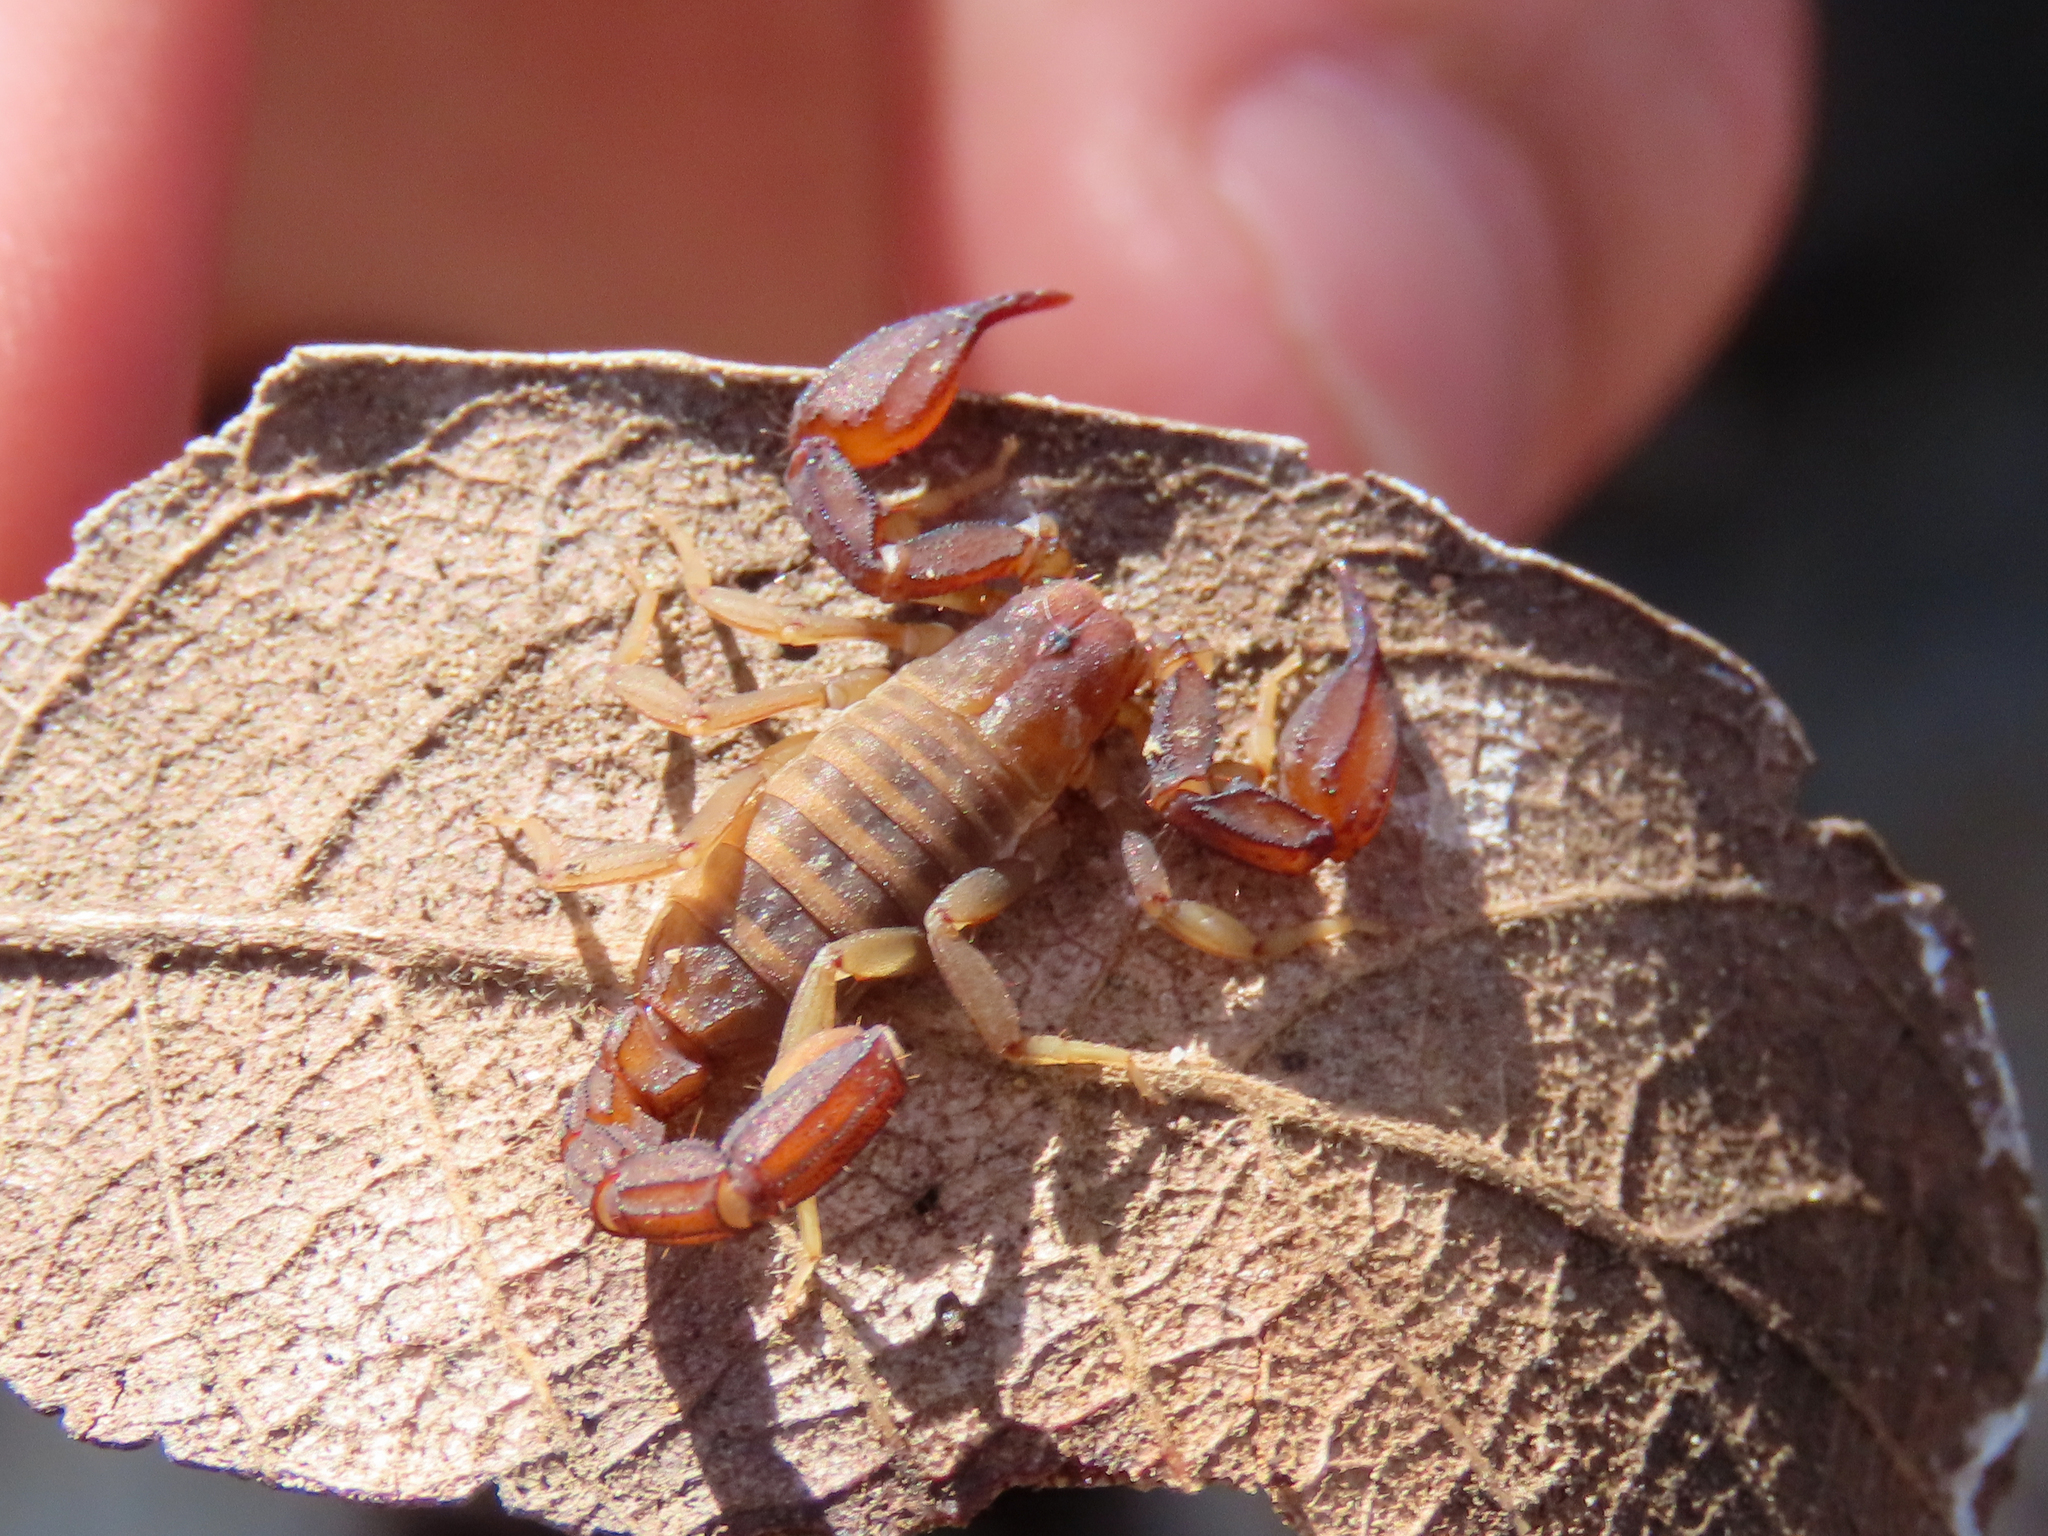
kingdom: Animalia
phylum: Arthropoda
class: Arachnida
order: Scorpiones
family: Vaejovidae
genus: Pseudouroctonus
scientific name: Pseudouroctonus santarita
